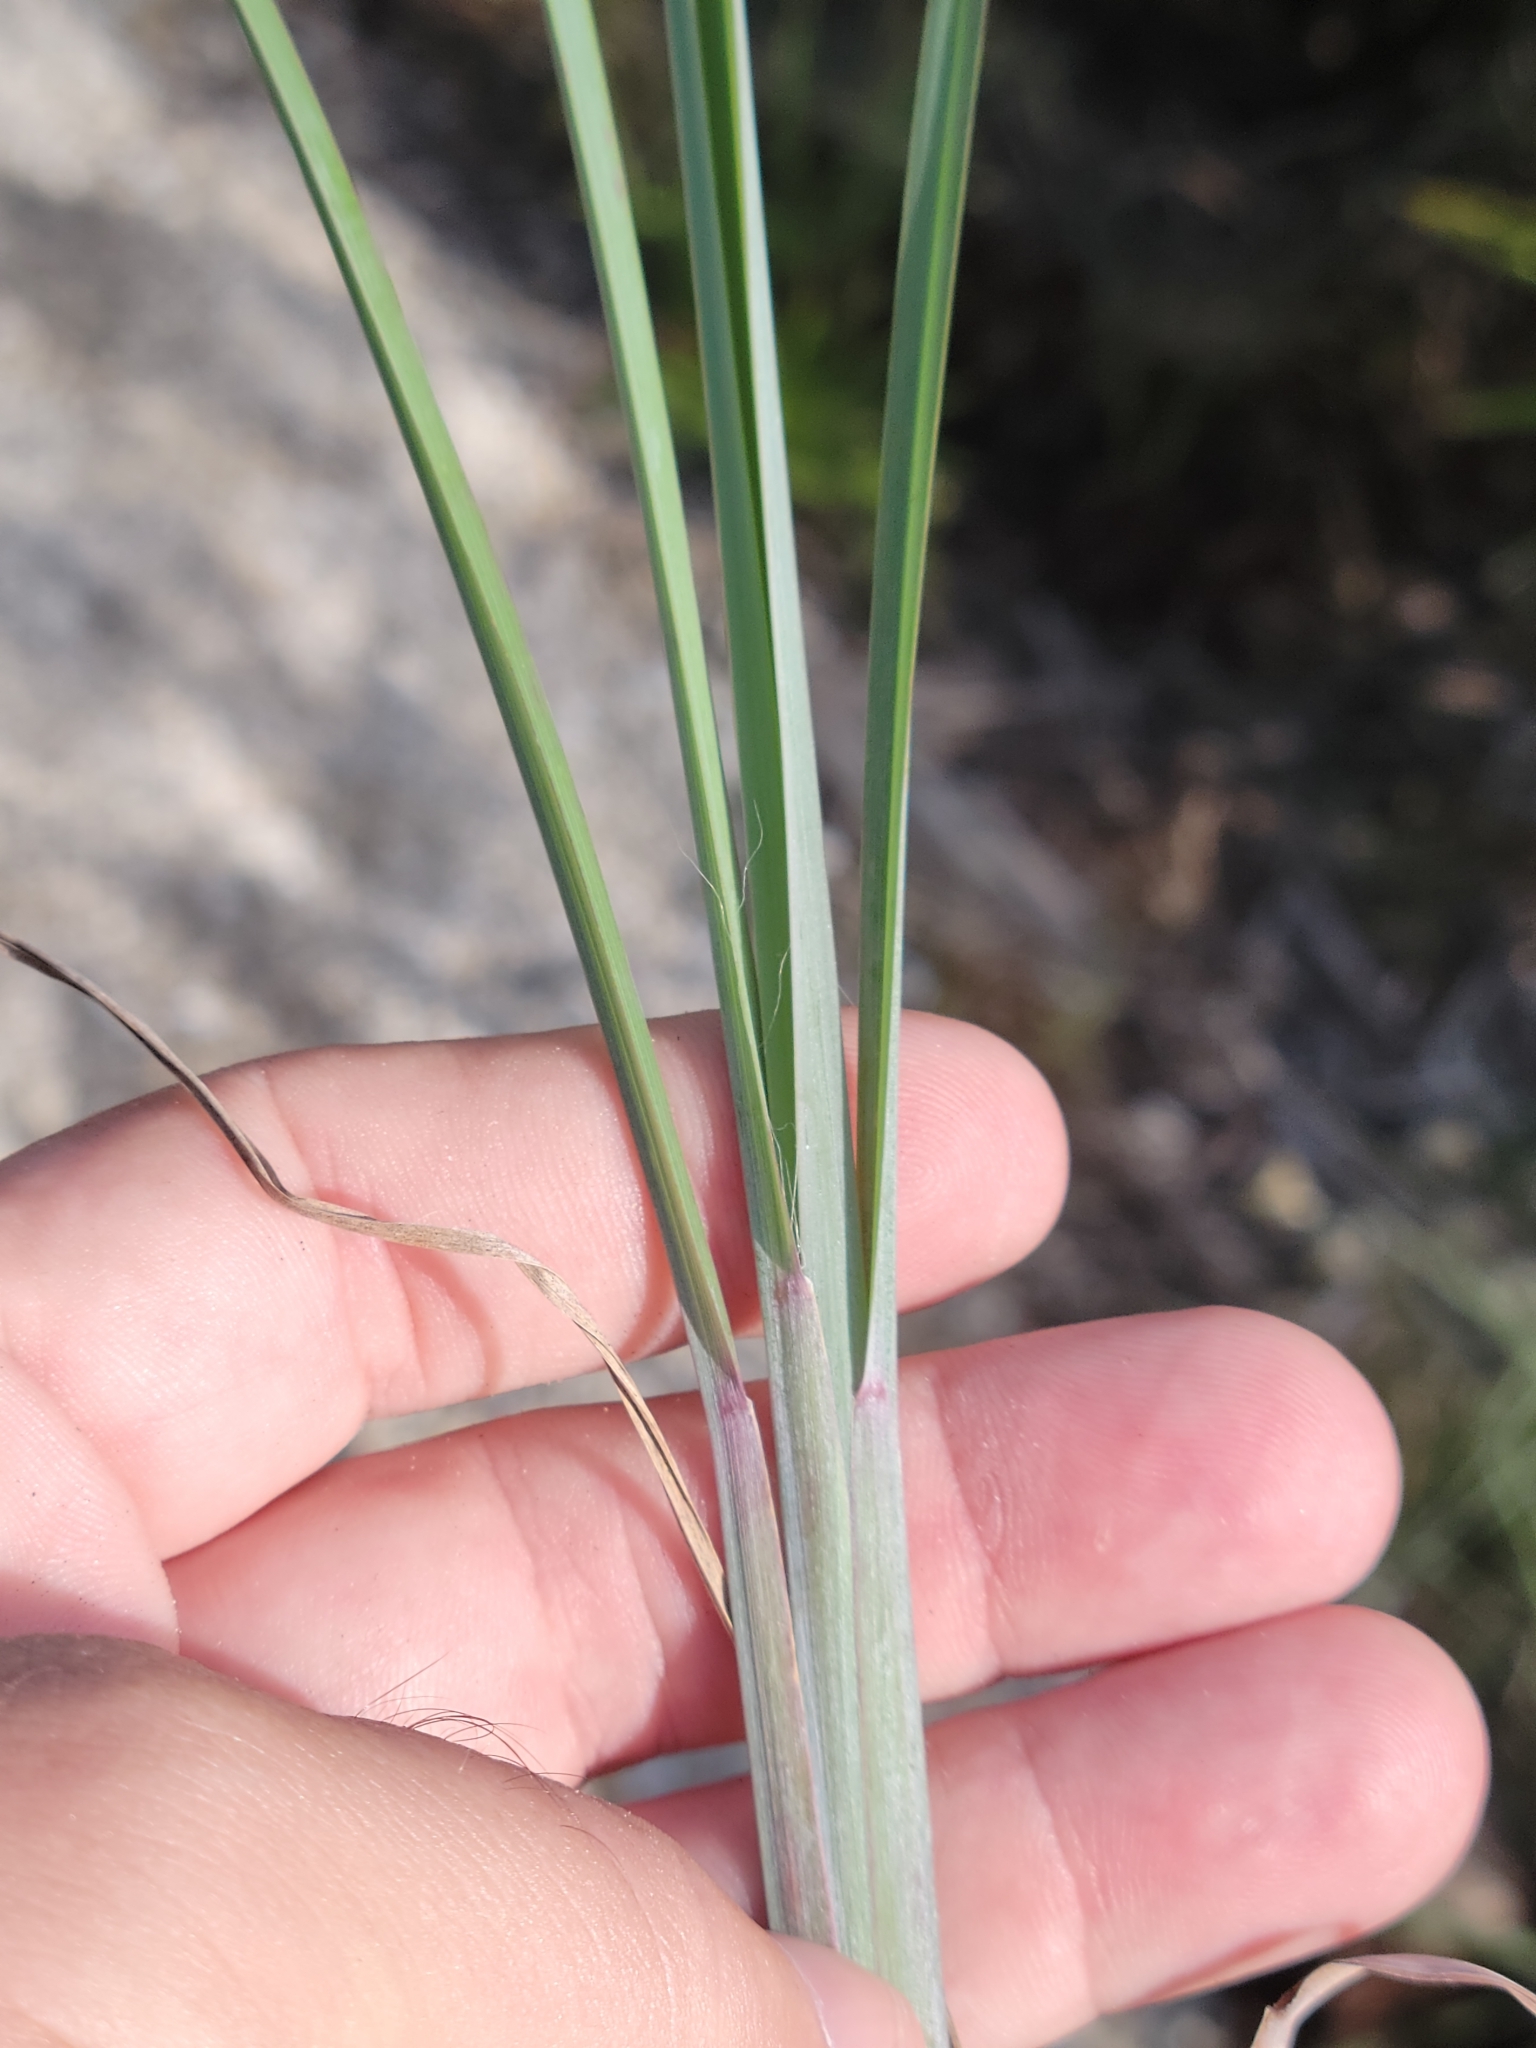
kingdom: Plantae
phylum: Tracheophyta
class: Liliopsida
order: Poales
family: Poaceae
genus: Andropogon
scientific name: Andropogon cretaceus
